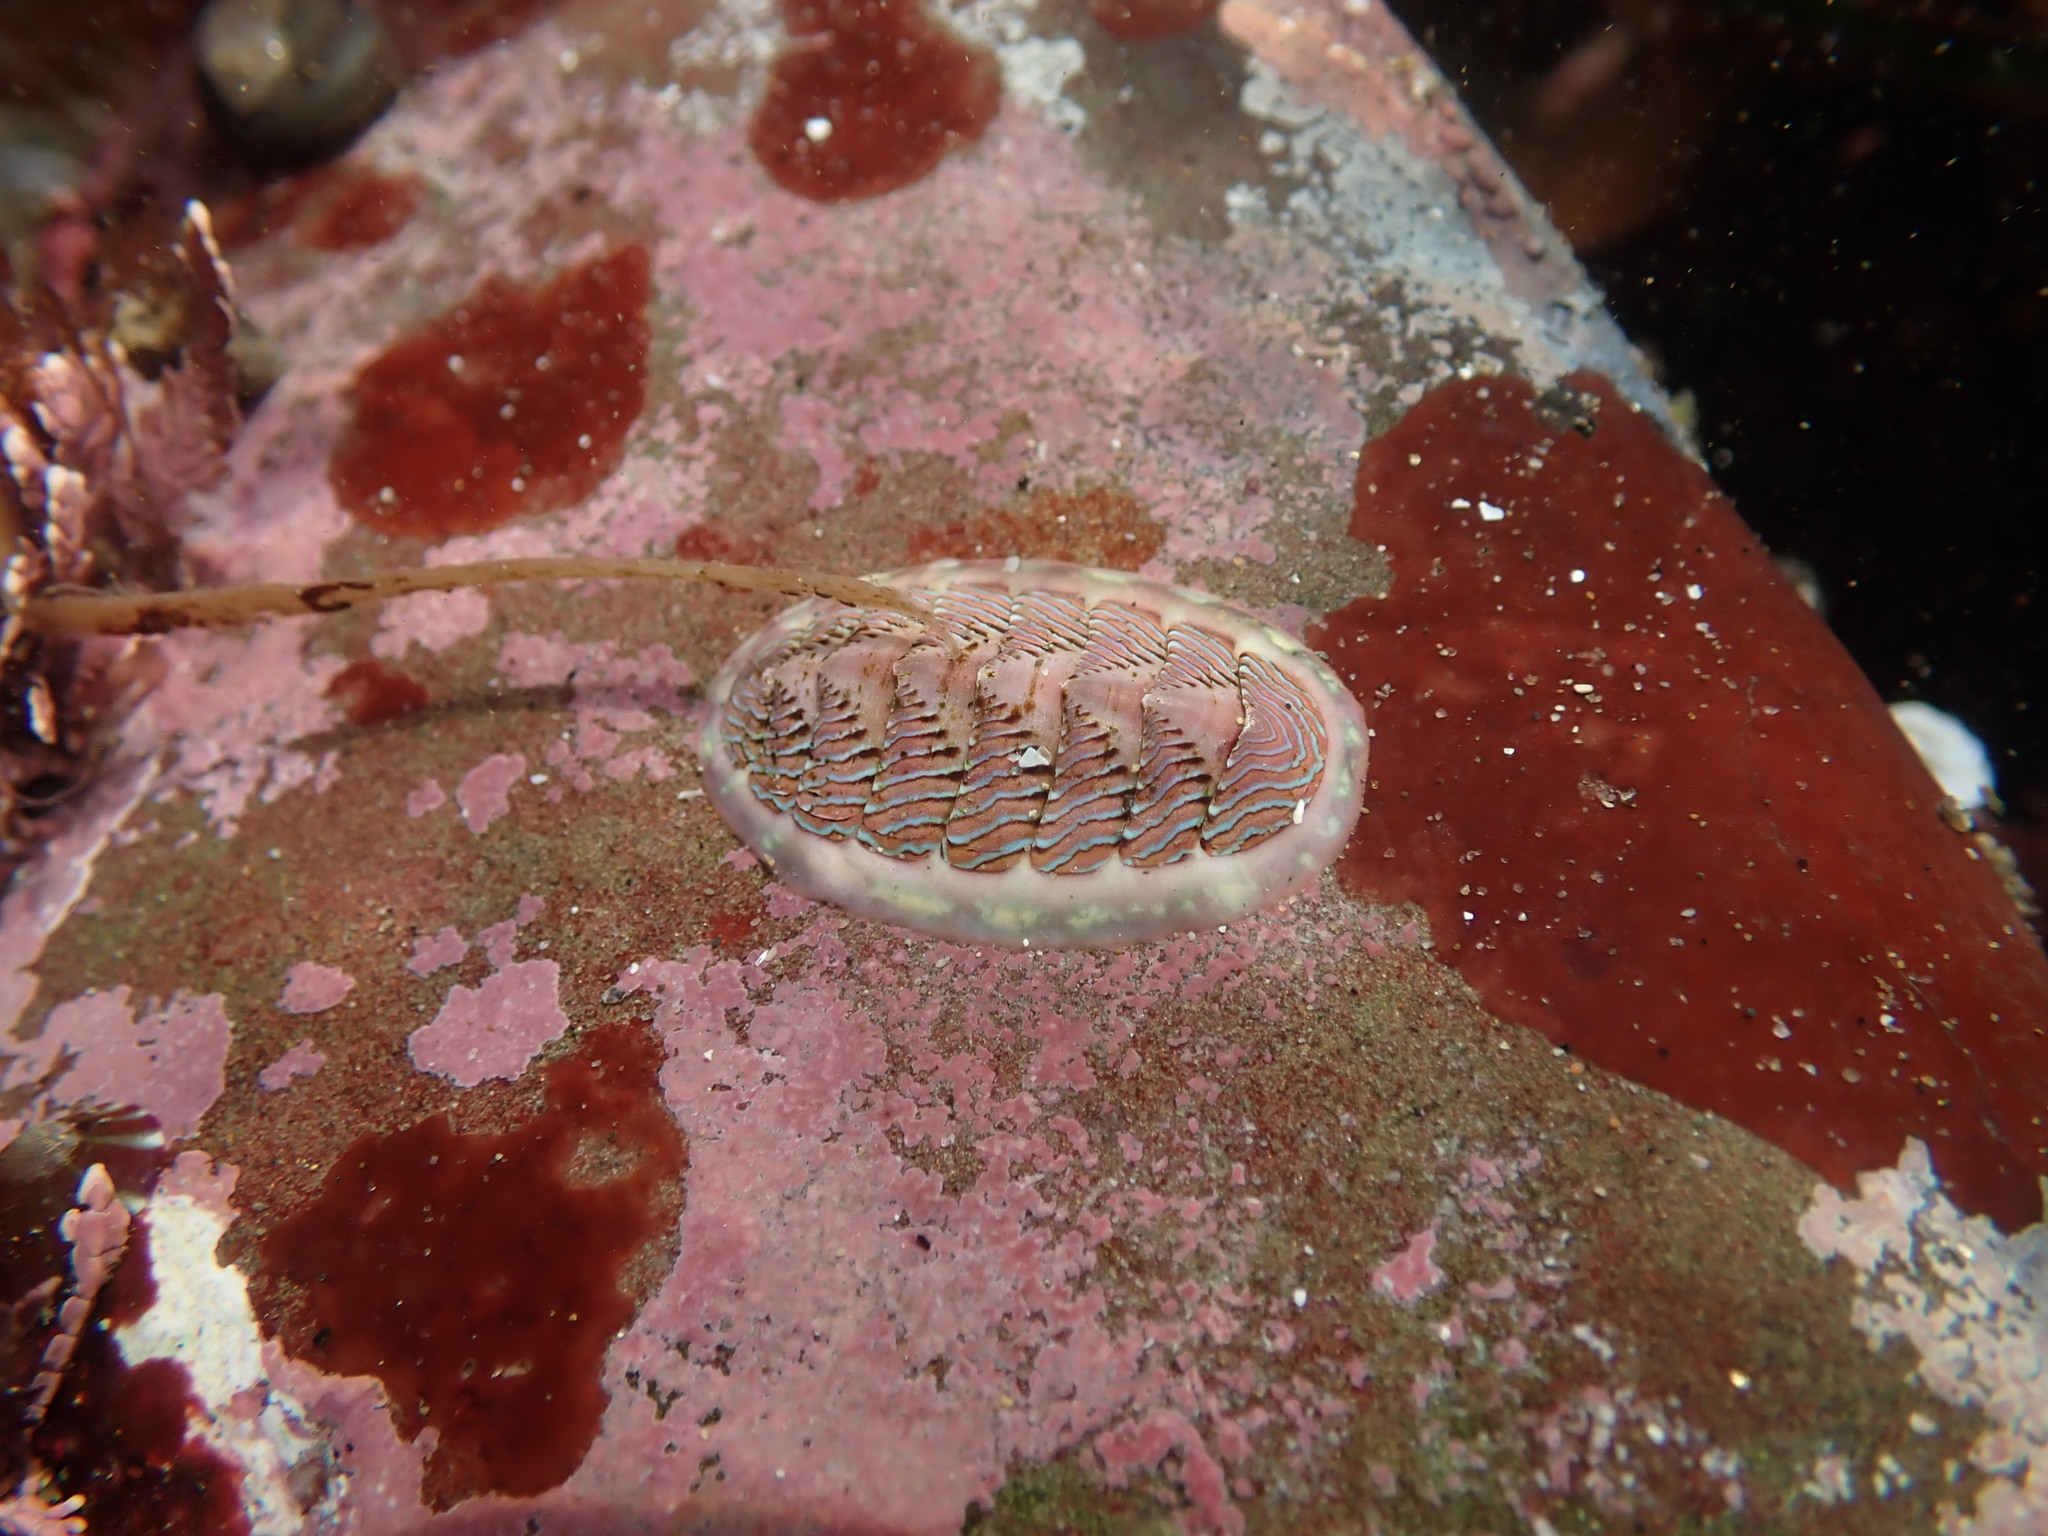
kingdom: Animalia
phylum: Mollusca
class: Polyplacophora
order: Chitonida
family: Tonicellidae
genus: Tonicella
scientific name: Tonicella lineata
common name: Lined chiton
